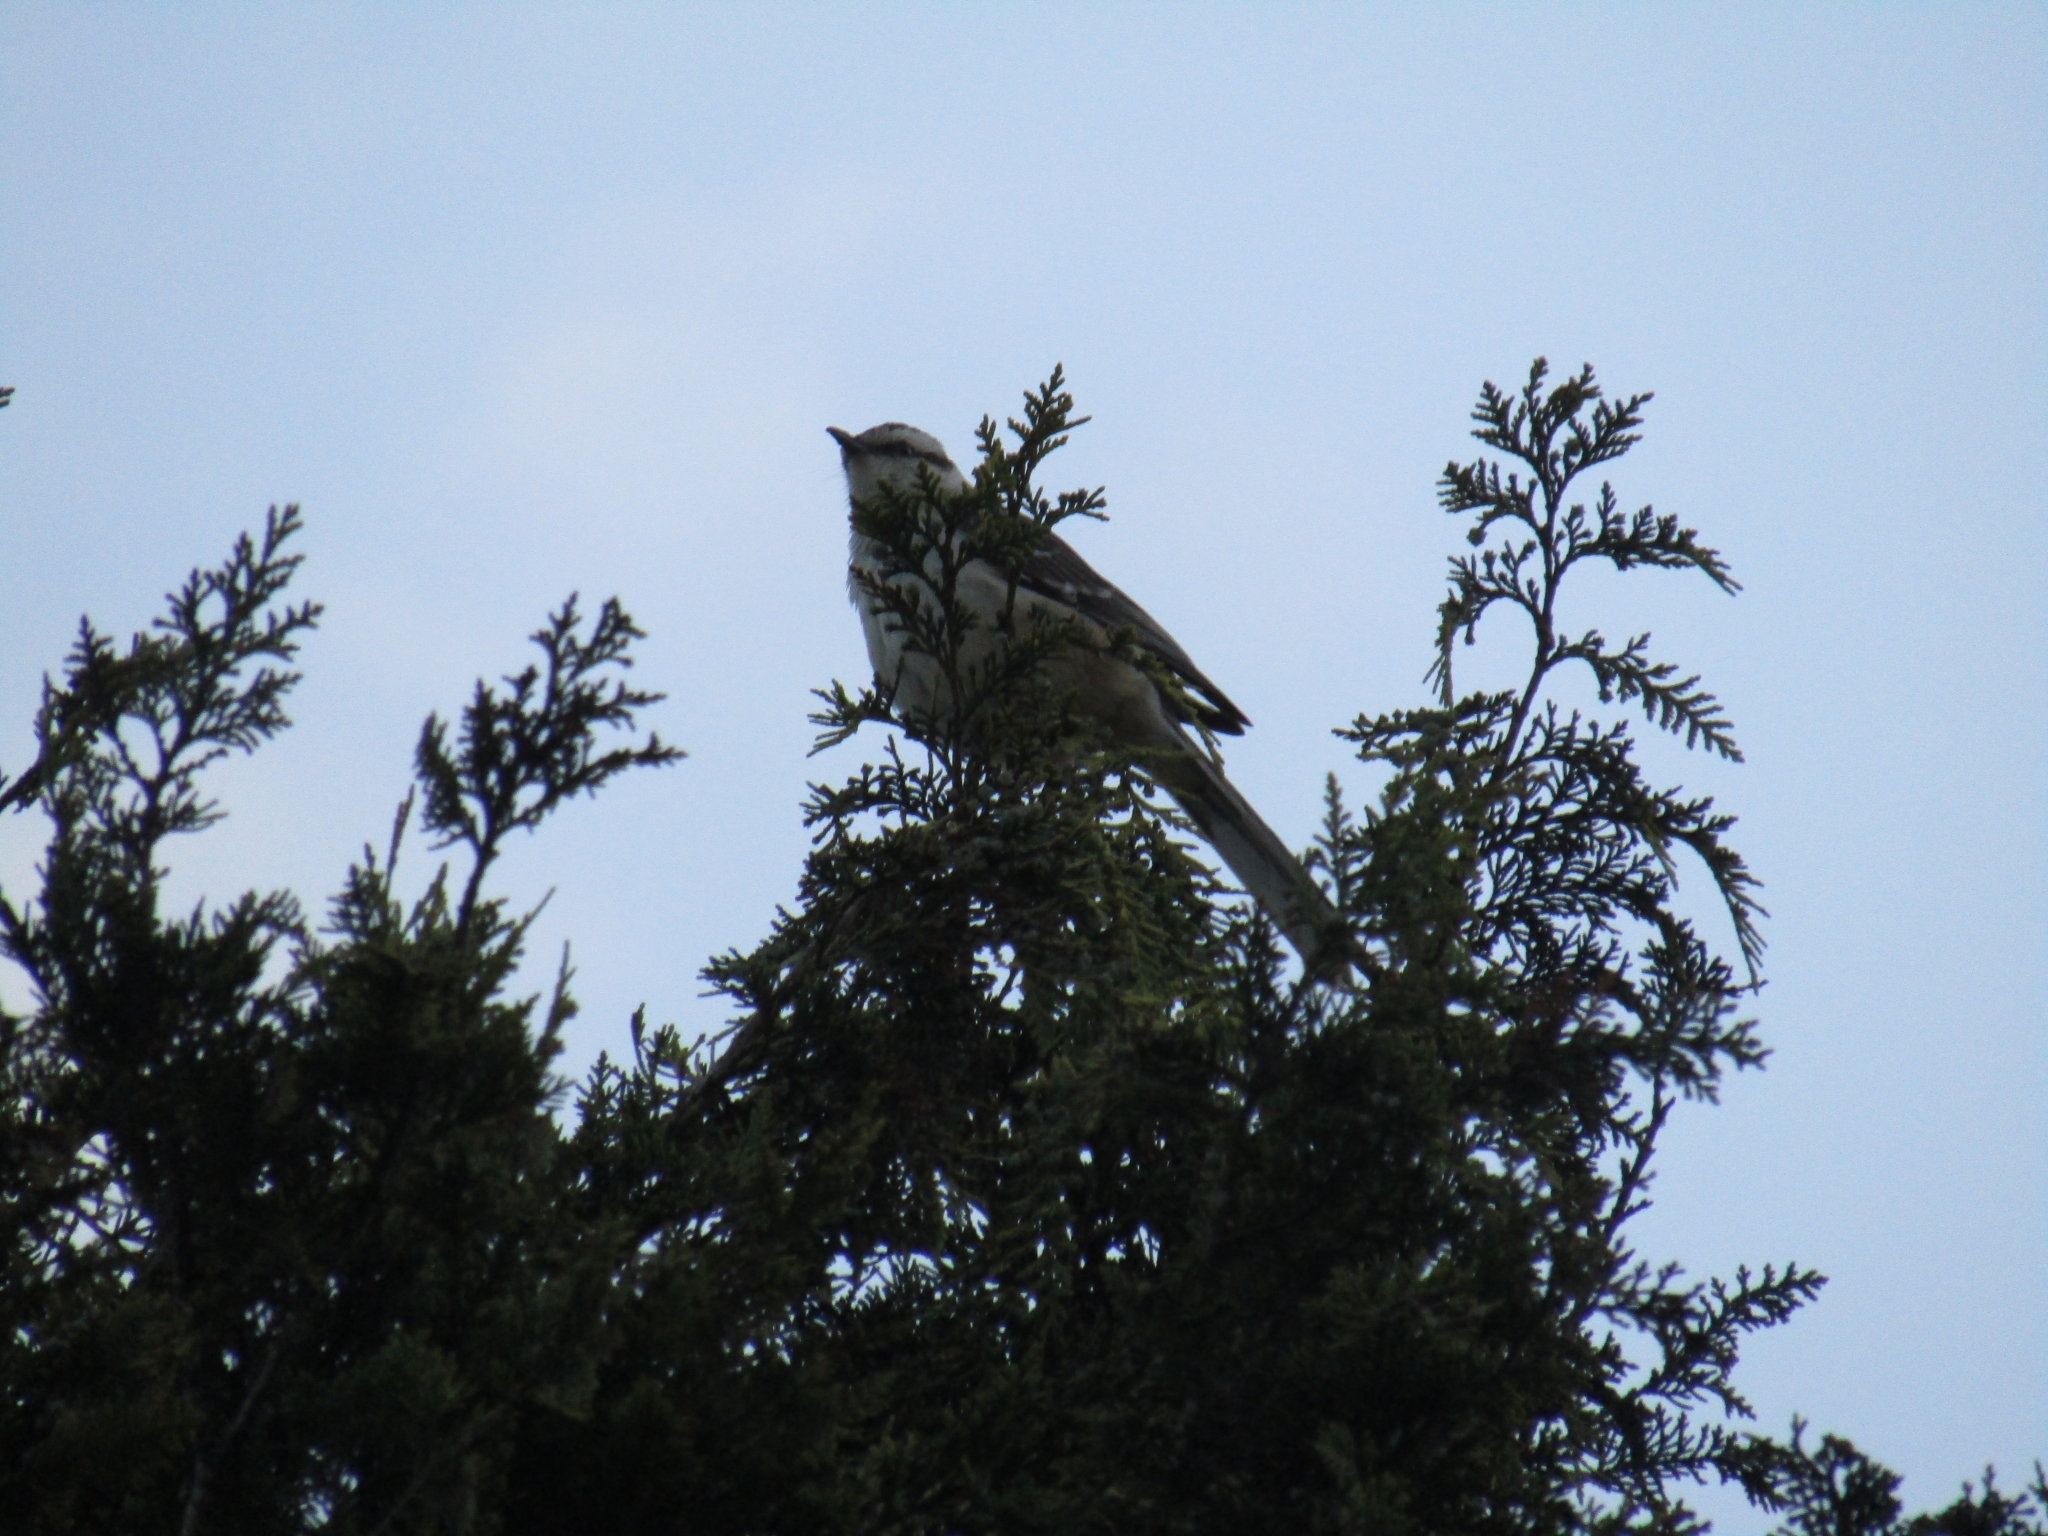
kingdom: Animalia
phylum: Chordata
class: Aves
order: Passeriformes
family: Mimidae
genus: Mimus
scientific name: Mimus saturninus
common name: Chalk-browed mockingbird
